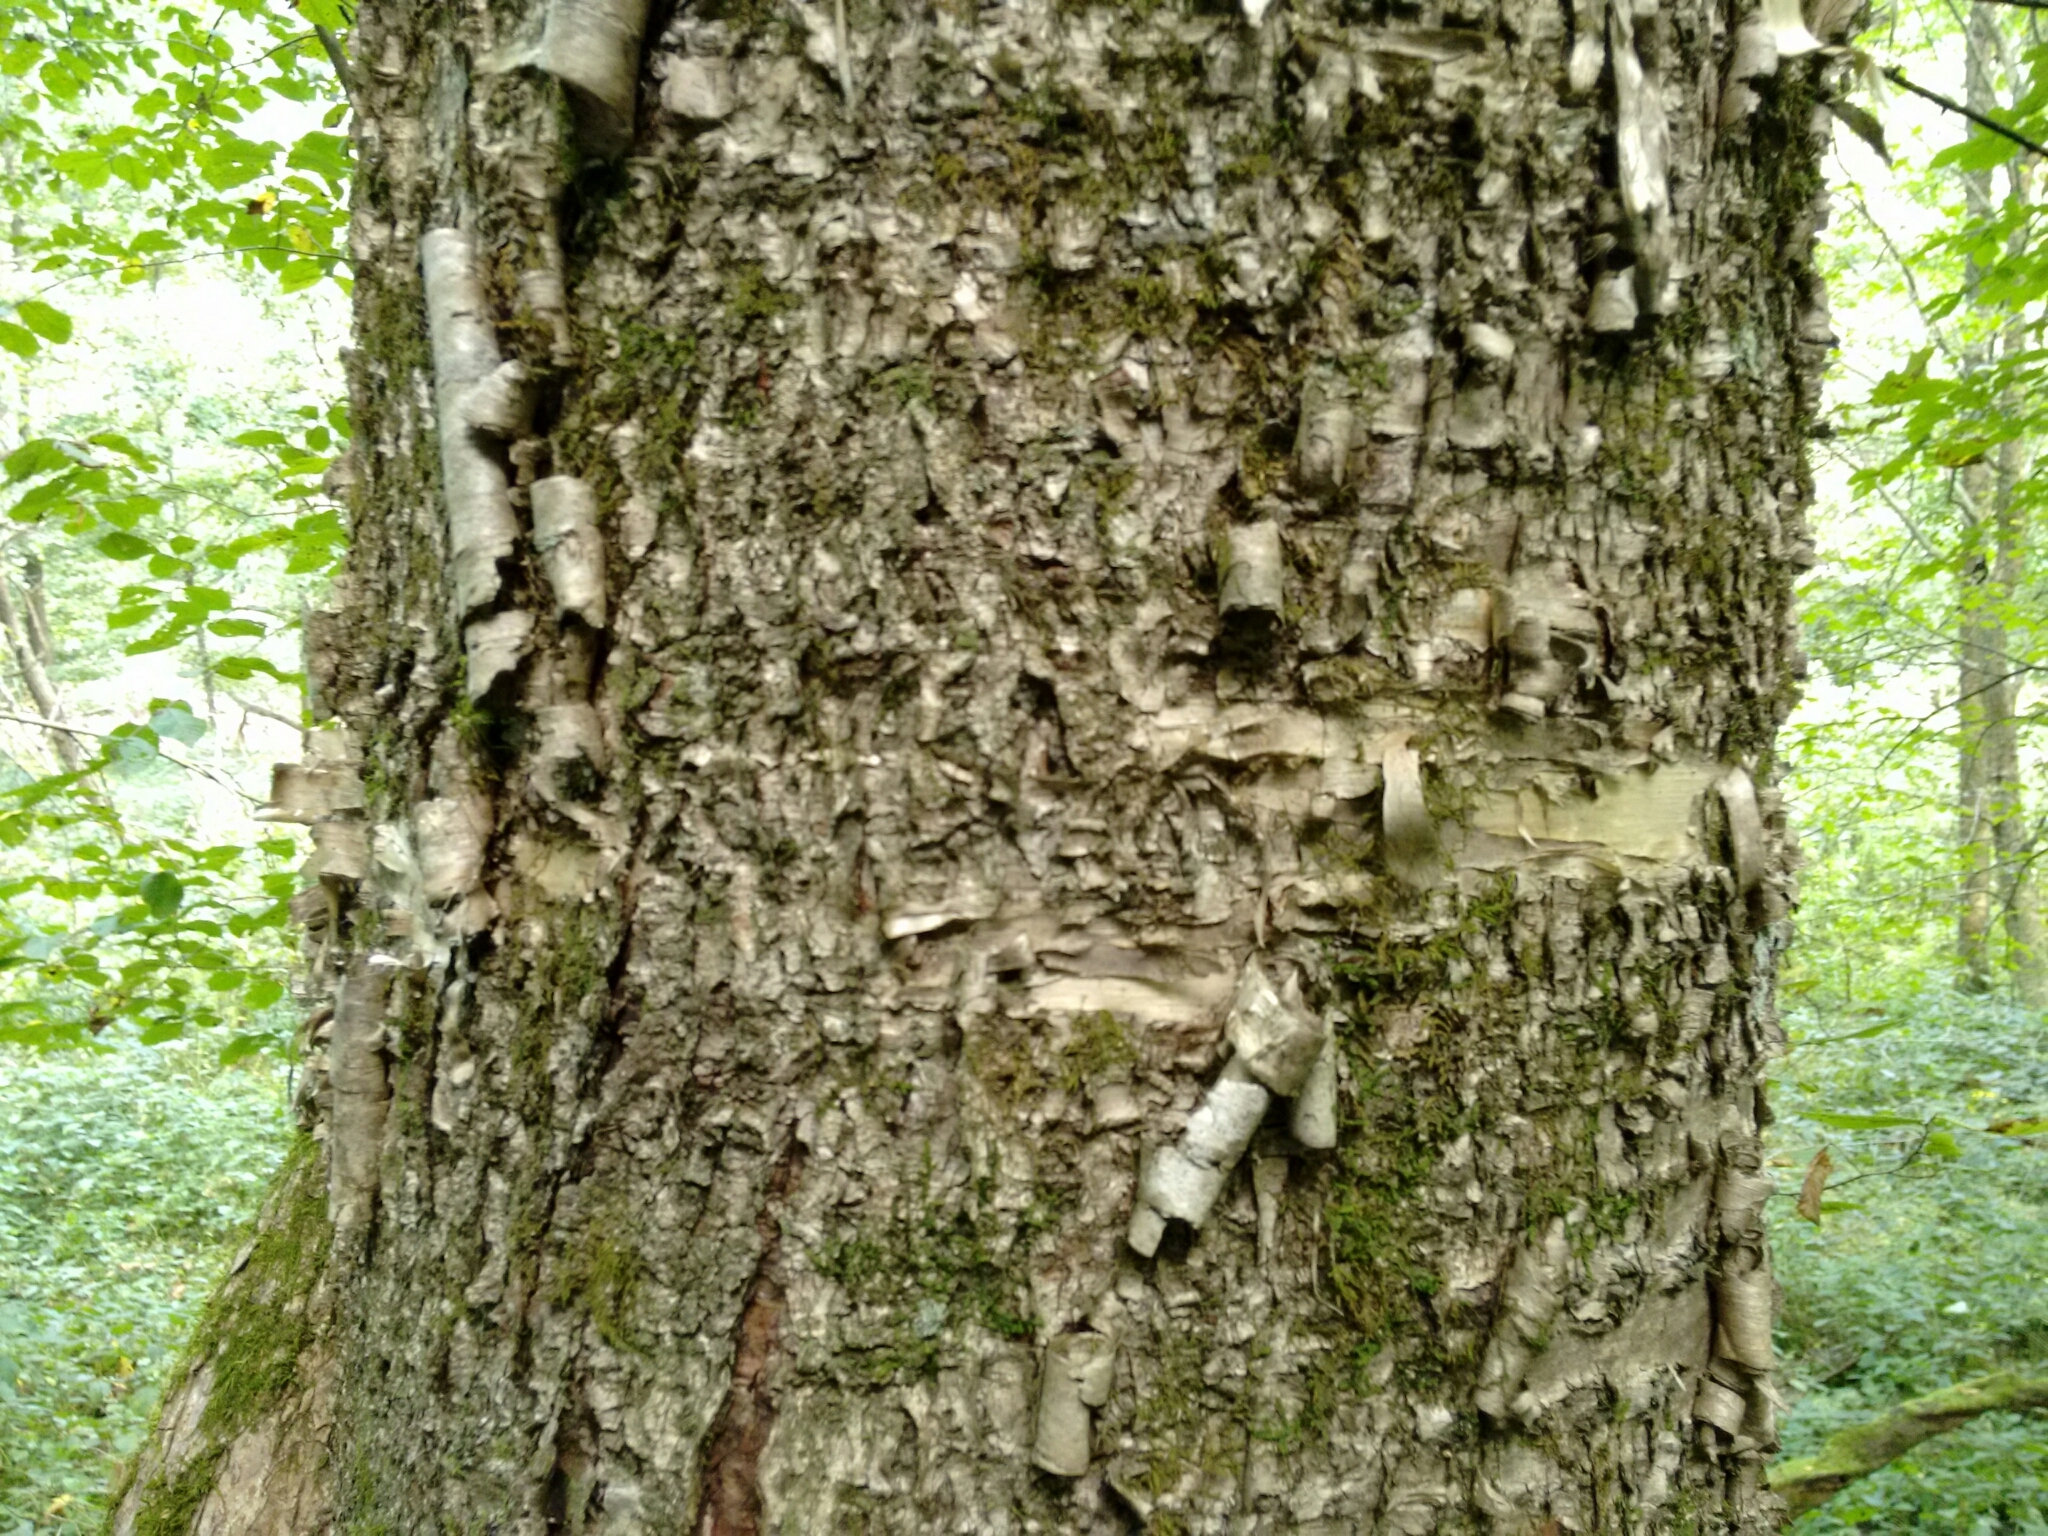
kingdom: Plantae
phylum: Tracheophyta
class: Magnoliopsida
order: Fagales
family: Betulaceae
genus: Betula
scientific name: Betula alleghaniensis
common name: Yellow birch
